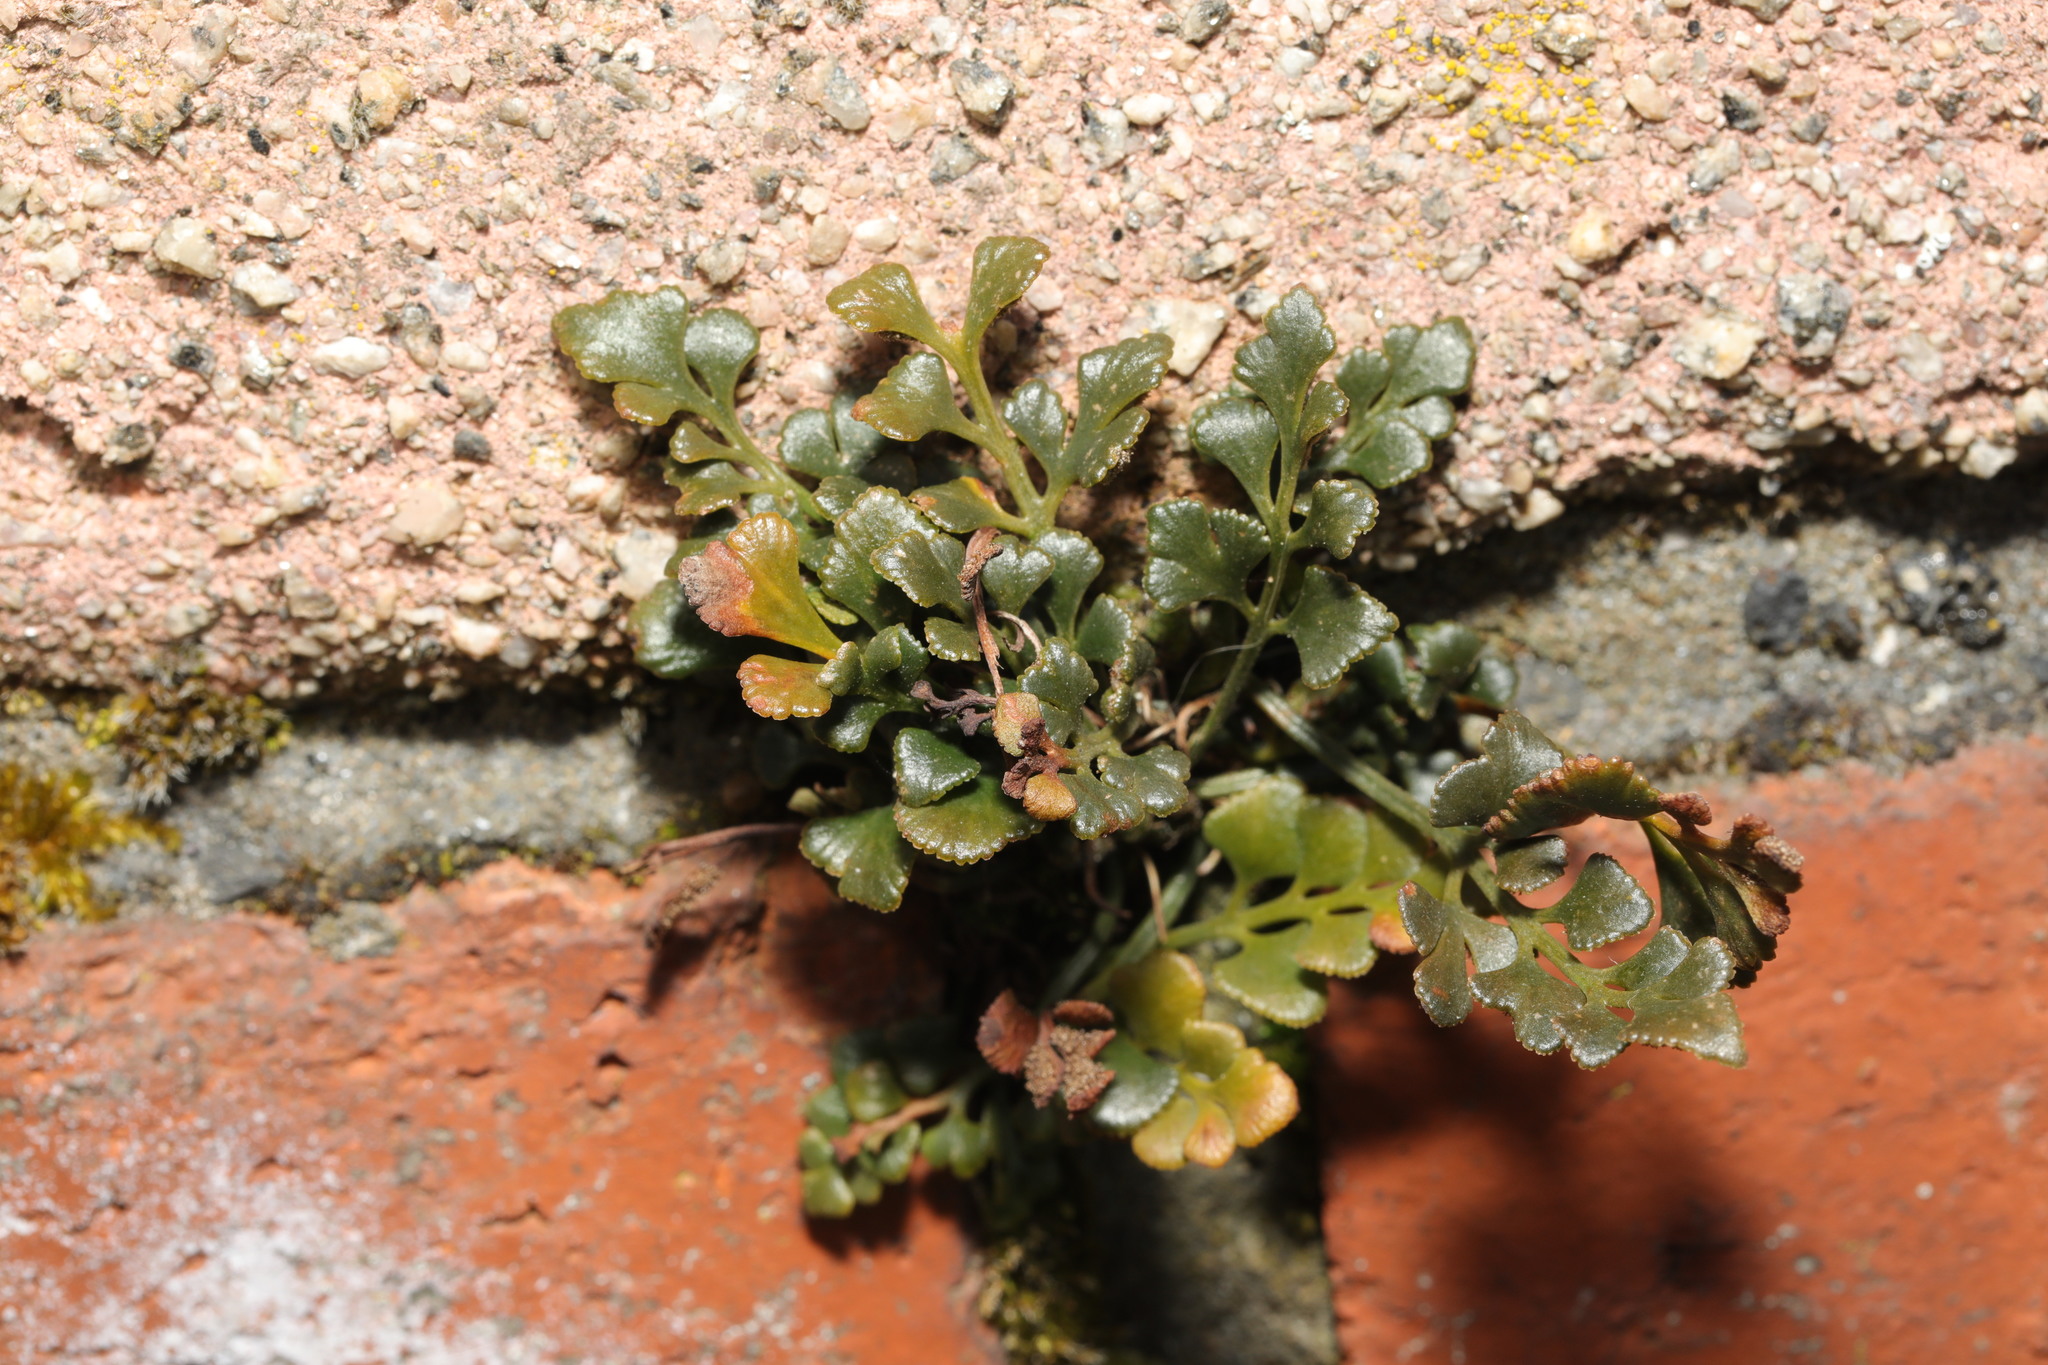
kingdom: Plantae
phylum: Tracheophyta
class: Polypodiopsida
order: Polypodiales
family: Aspleniaceae
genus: Asplenium
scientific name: Asplenium ruta-muraria
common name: Wall-rue
